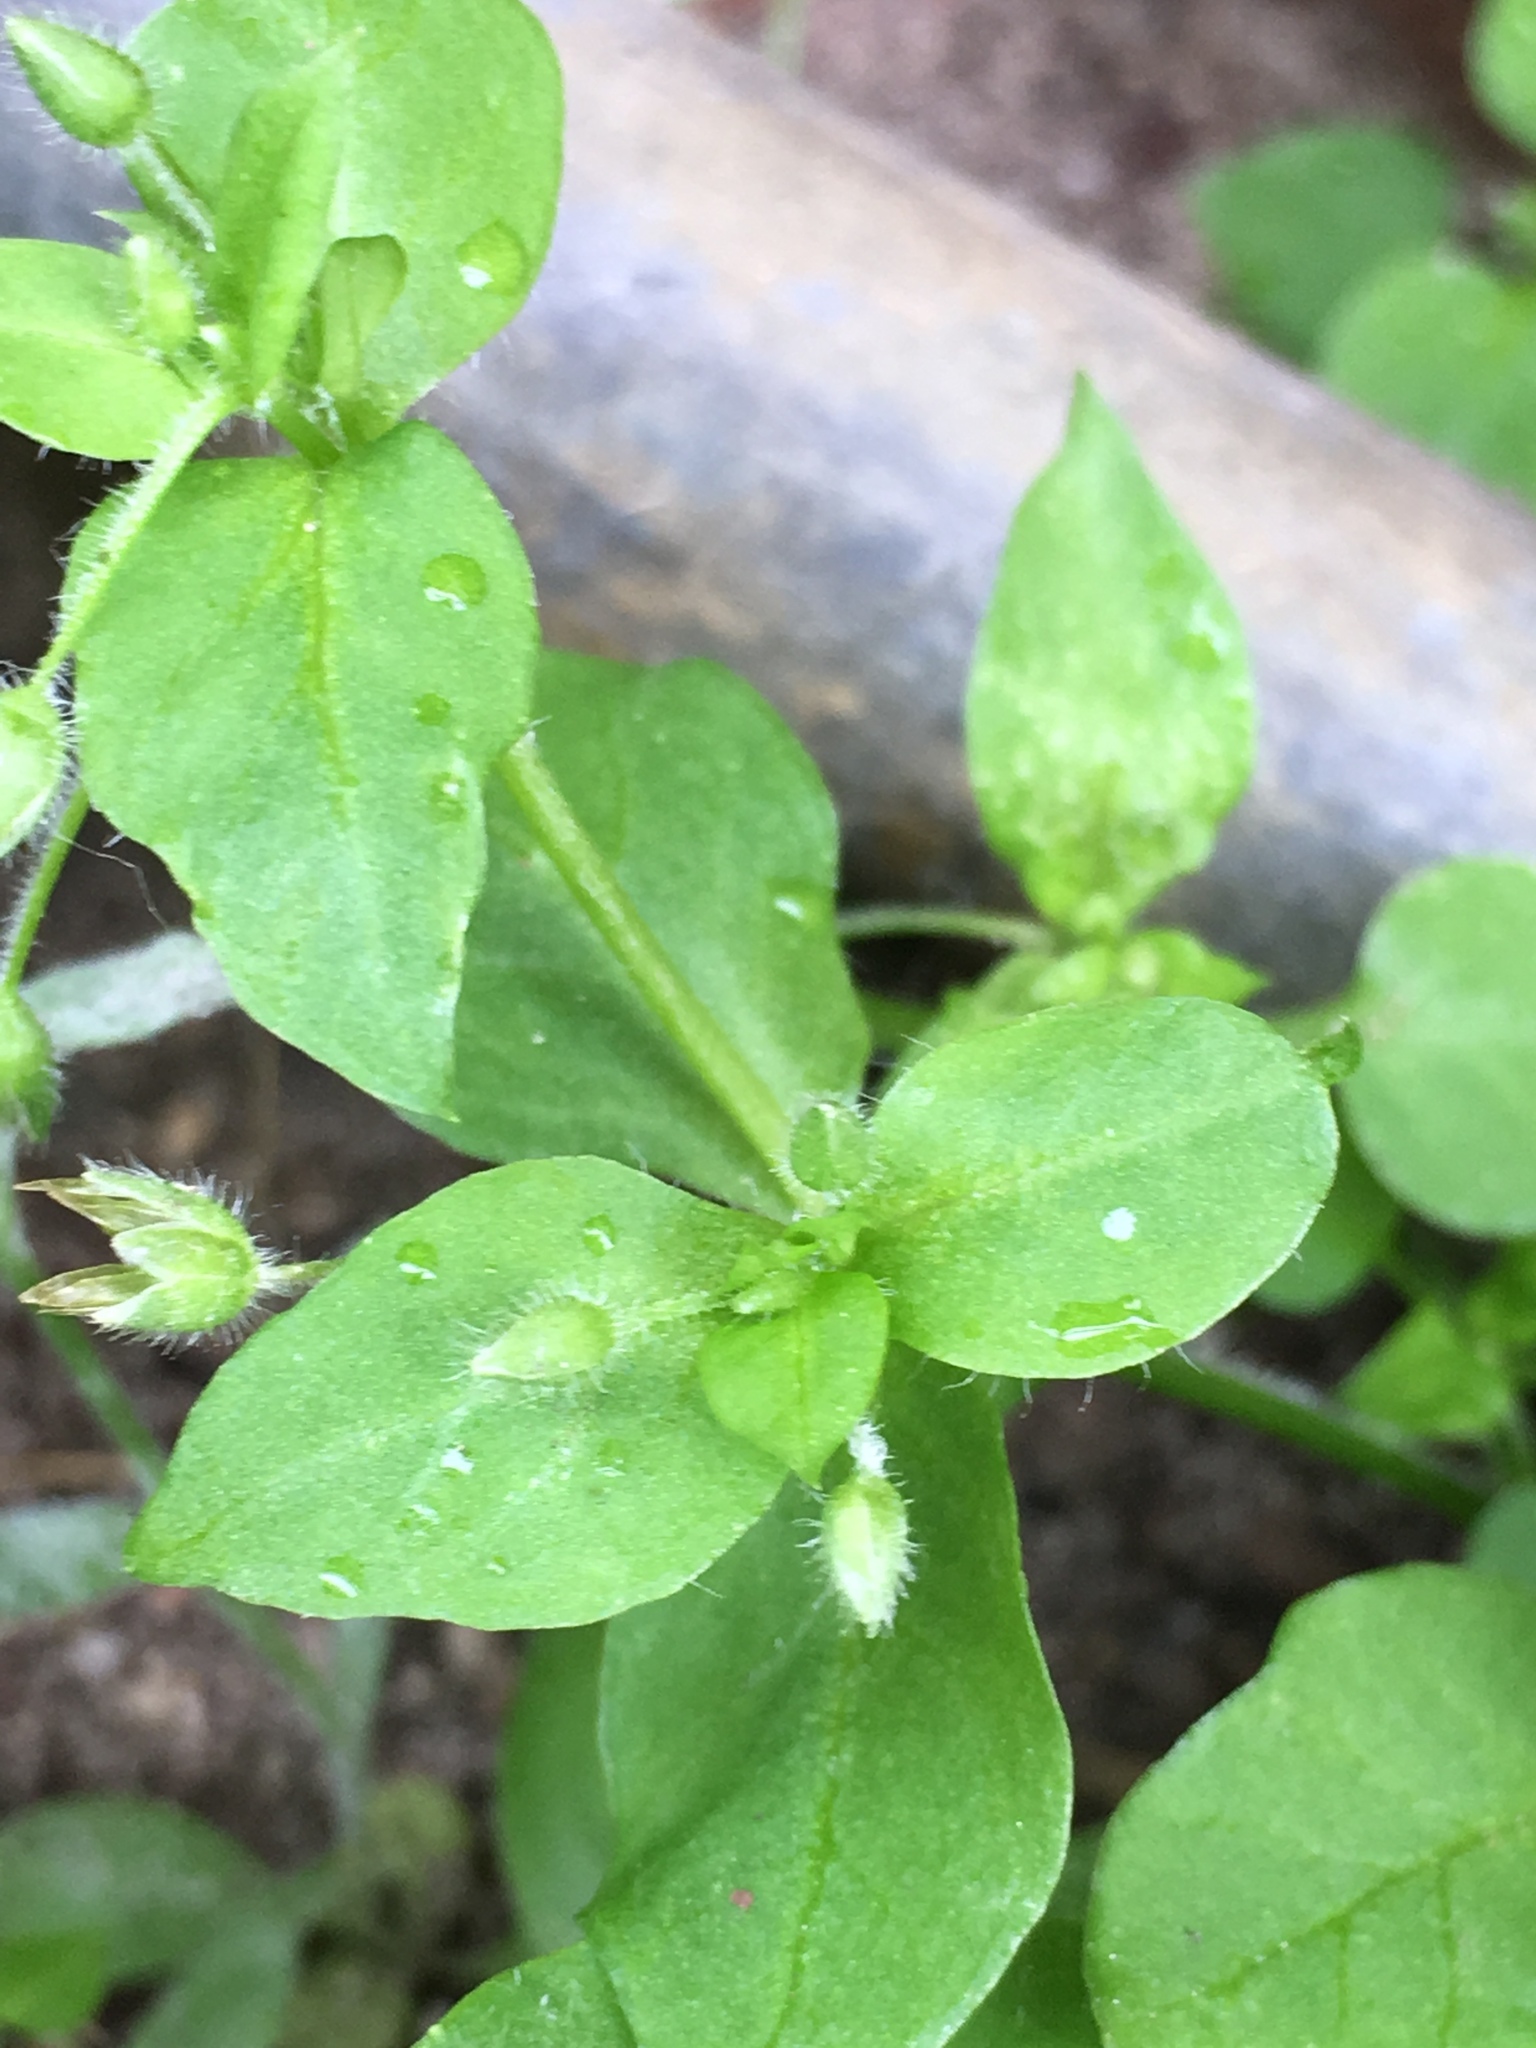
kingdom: Plantae
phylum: Tracheophyta
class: Magnoliopsida
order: Caryophyllales
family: Caryophyllaceae
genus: Stellaria
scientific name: Stellaria media
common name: Common chickweed
